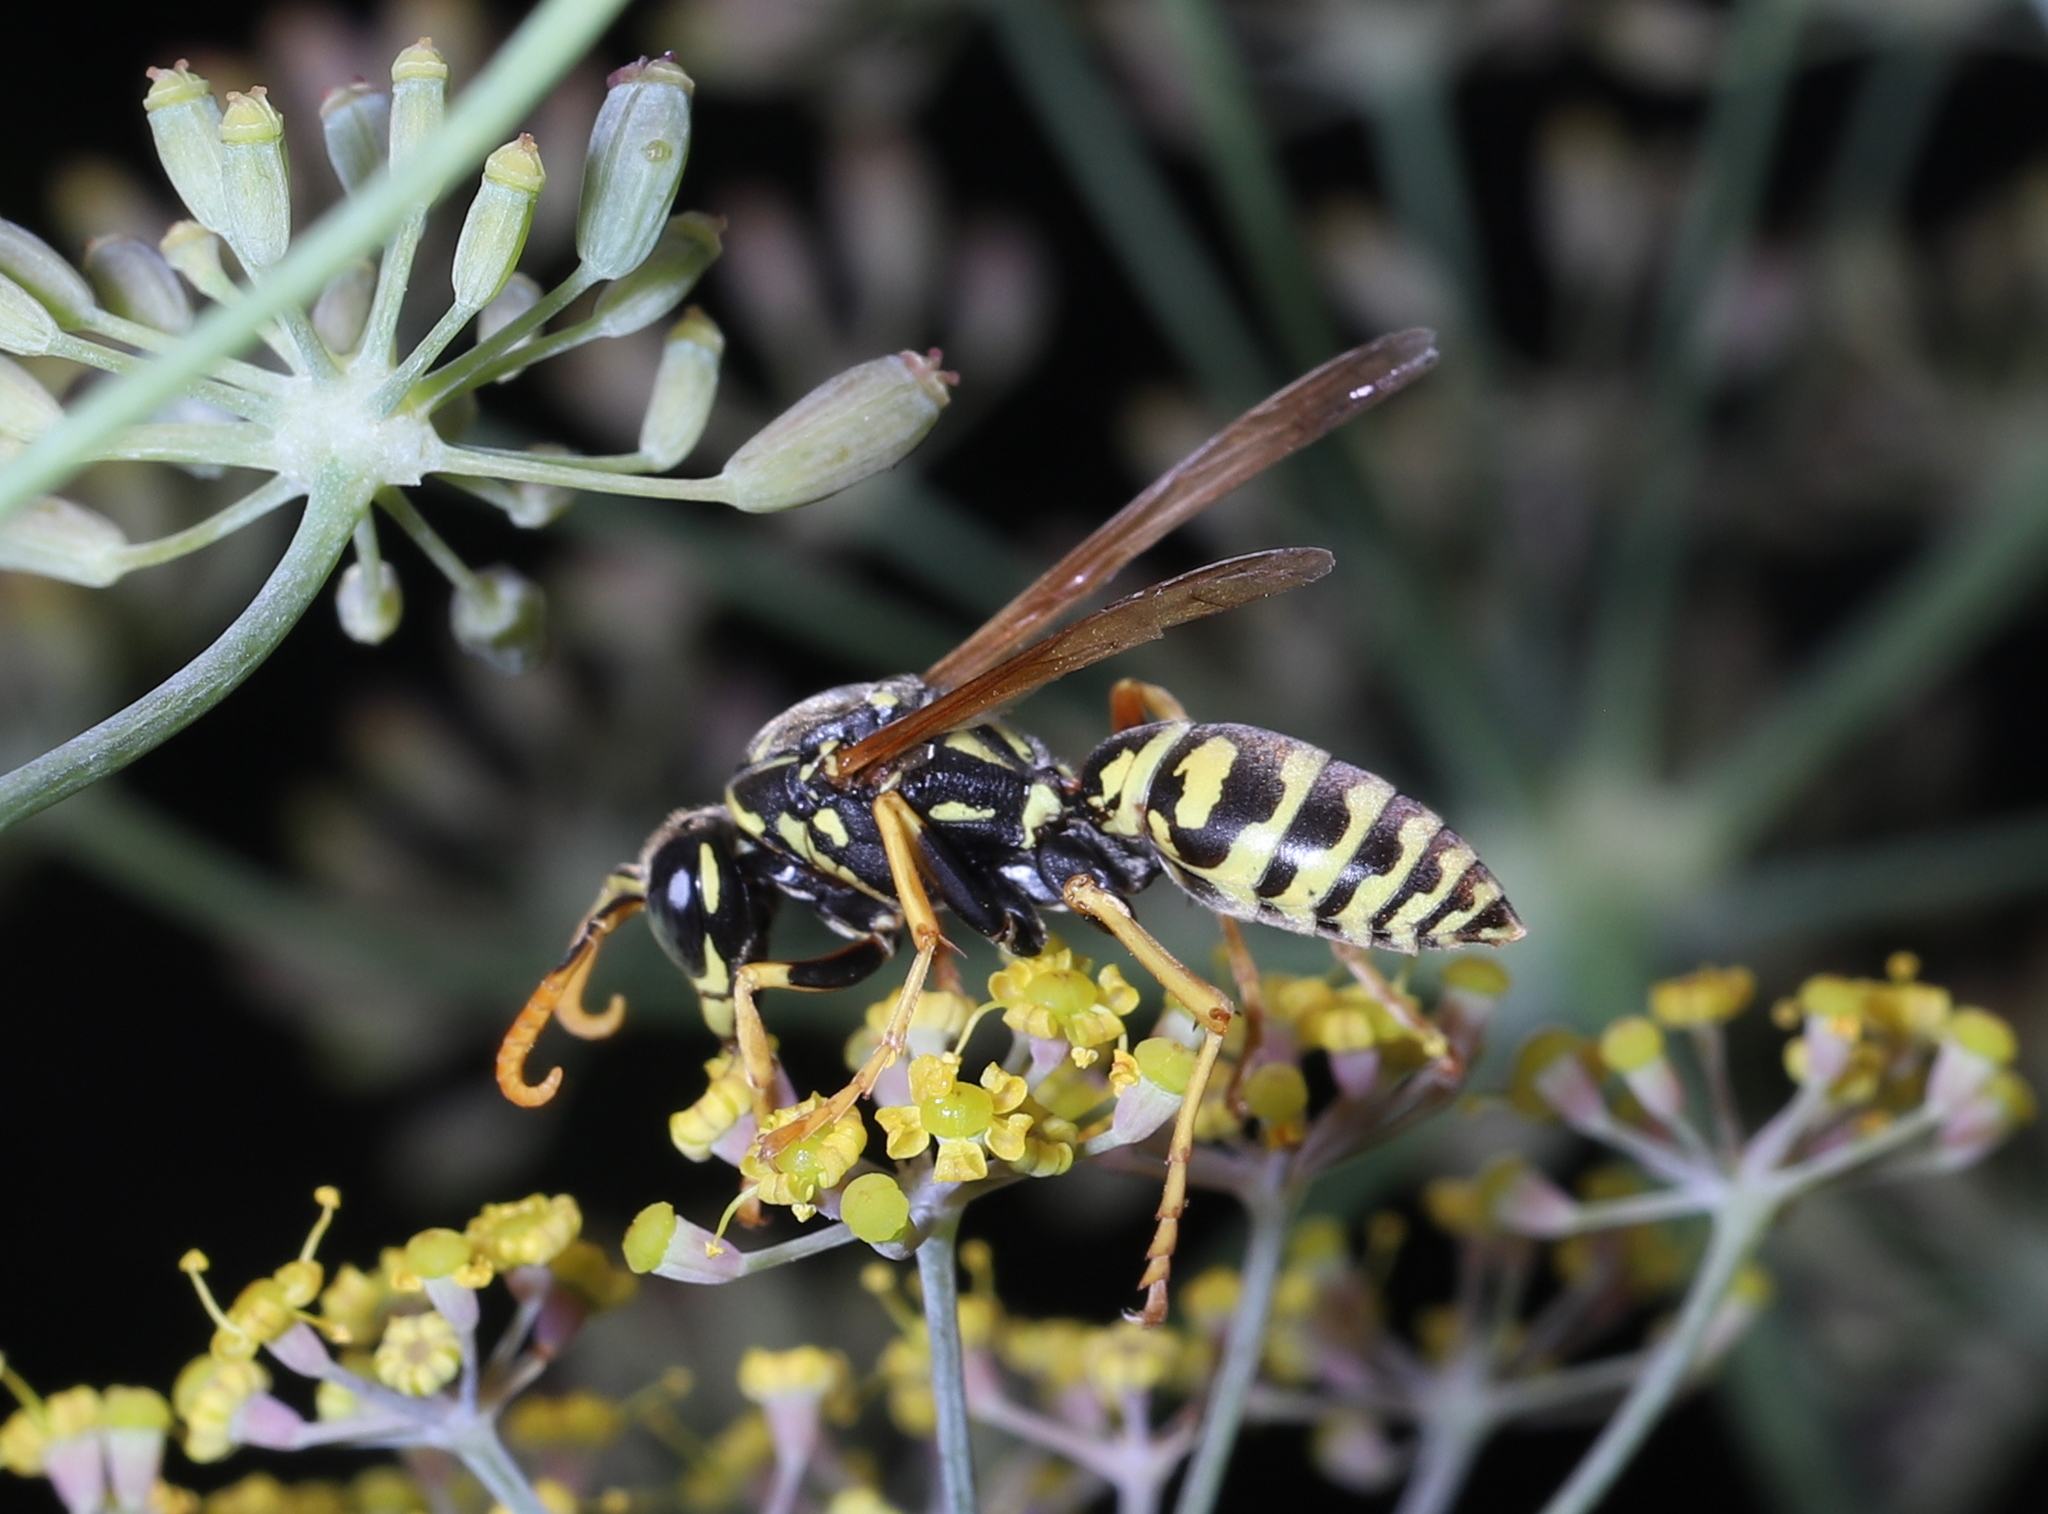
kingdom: Animalia
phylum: Arthropoda
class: Insecta
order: Hymenoptera
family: Eumenidae
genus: Polistes
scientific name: Polistes dominula
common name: Paper wasp
